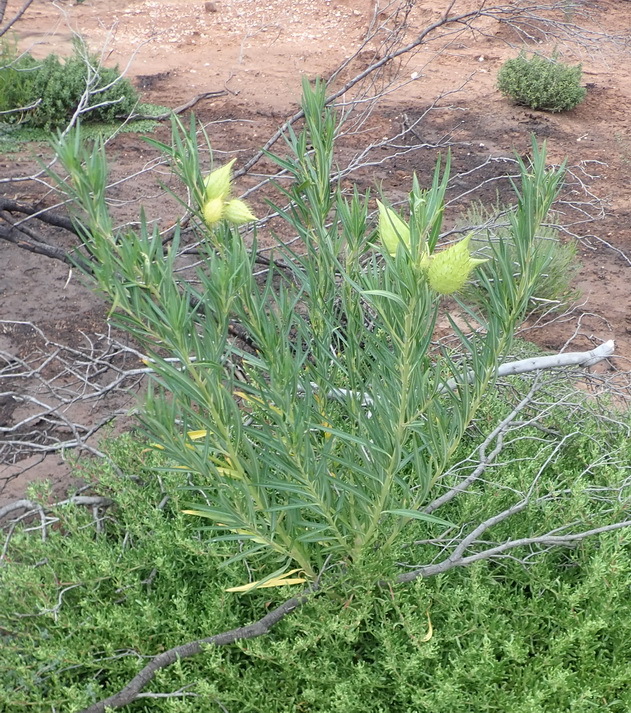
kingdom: Plantae
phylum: Tracheophyta
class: Magnoliopsida
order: Gentianales
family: Apocynaceae
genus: Gomphocarpus
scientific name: Gomphocarpus fruticosus
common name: Milkweed
